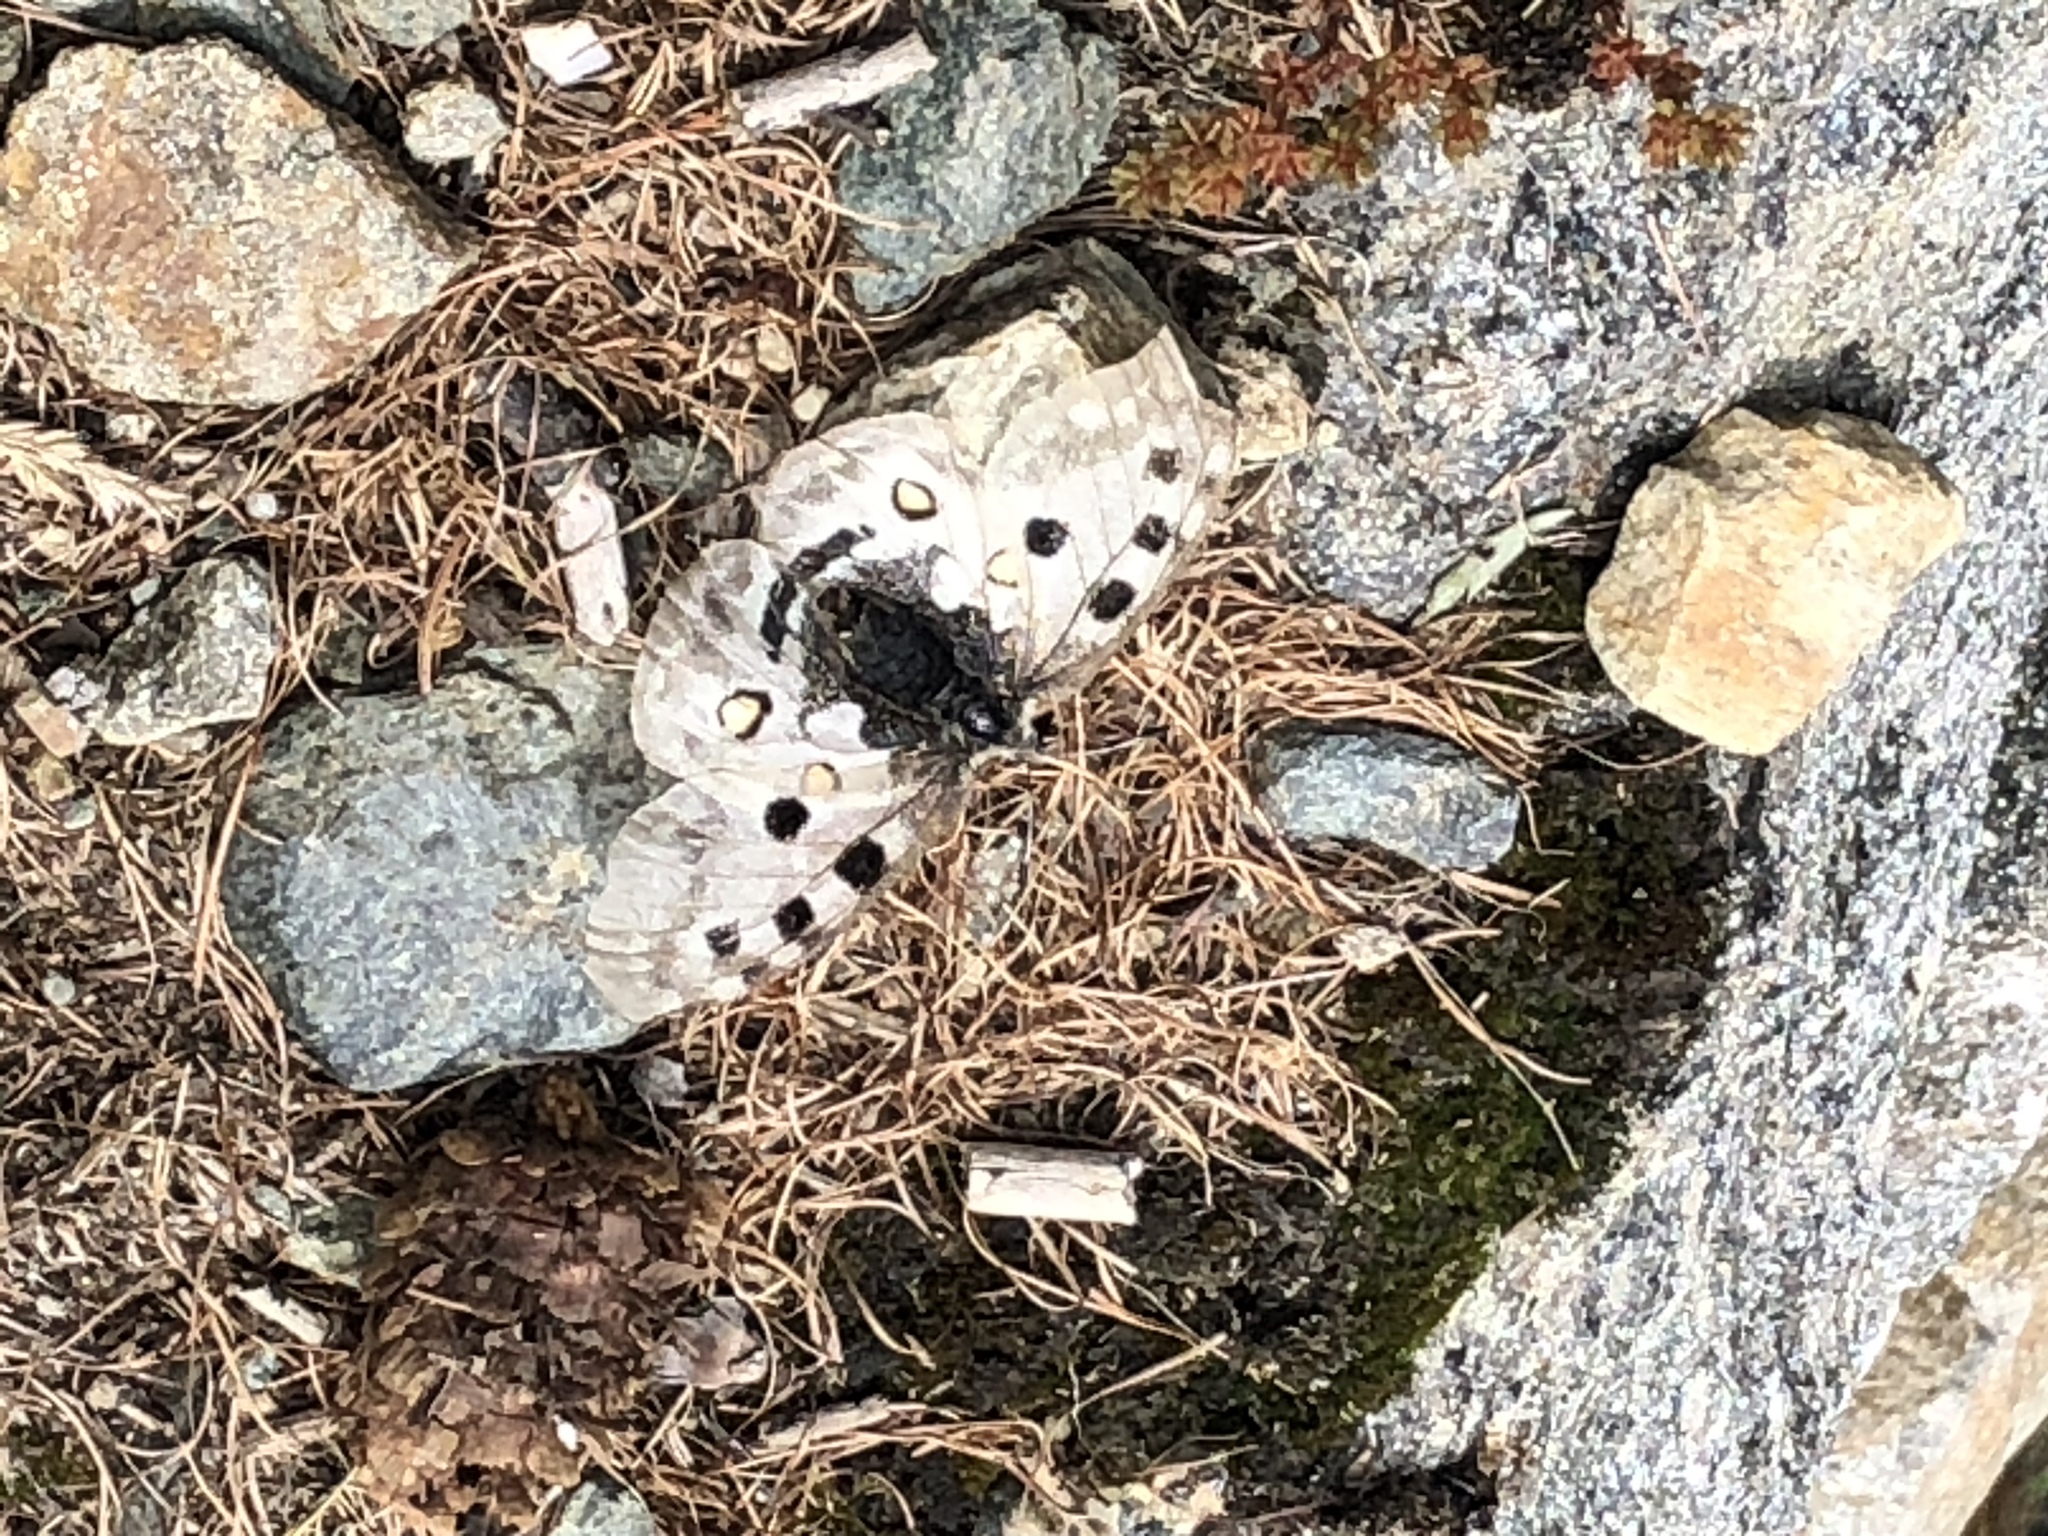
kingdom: Animalia
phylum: Arthropoda
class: Insecta
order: Lepidoptera
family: Papilionidae
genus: Parnassius
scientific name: Parnassius apollo
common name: Apollo
